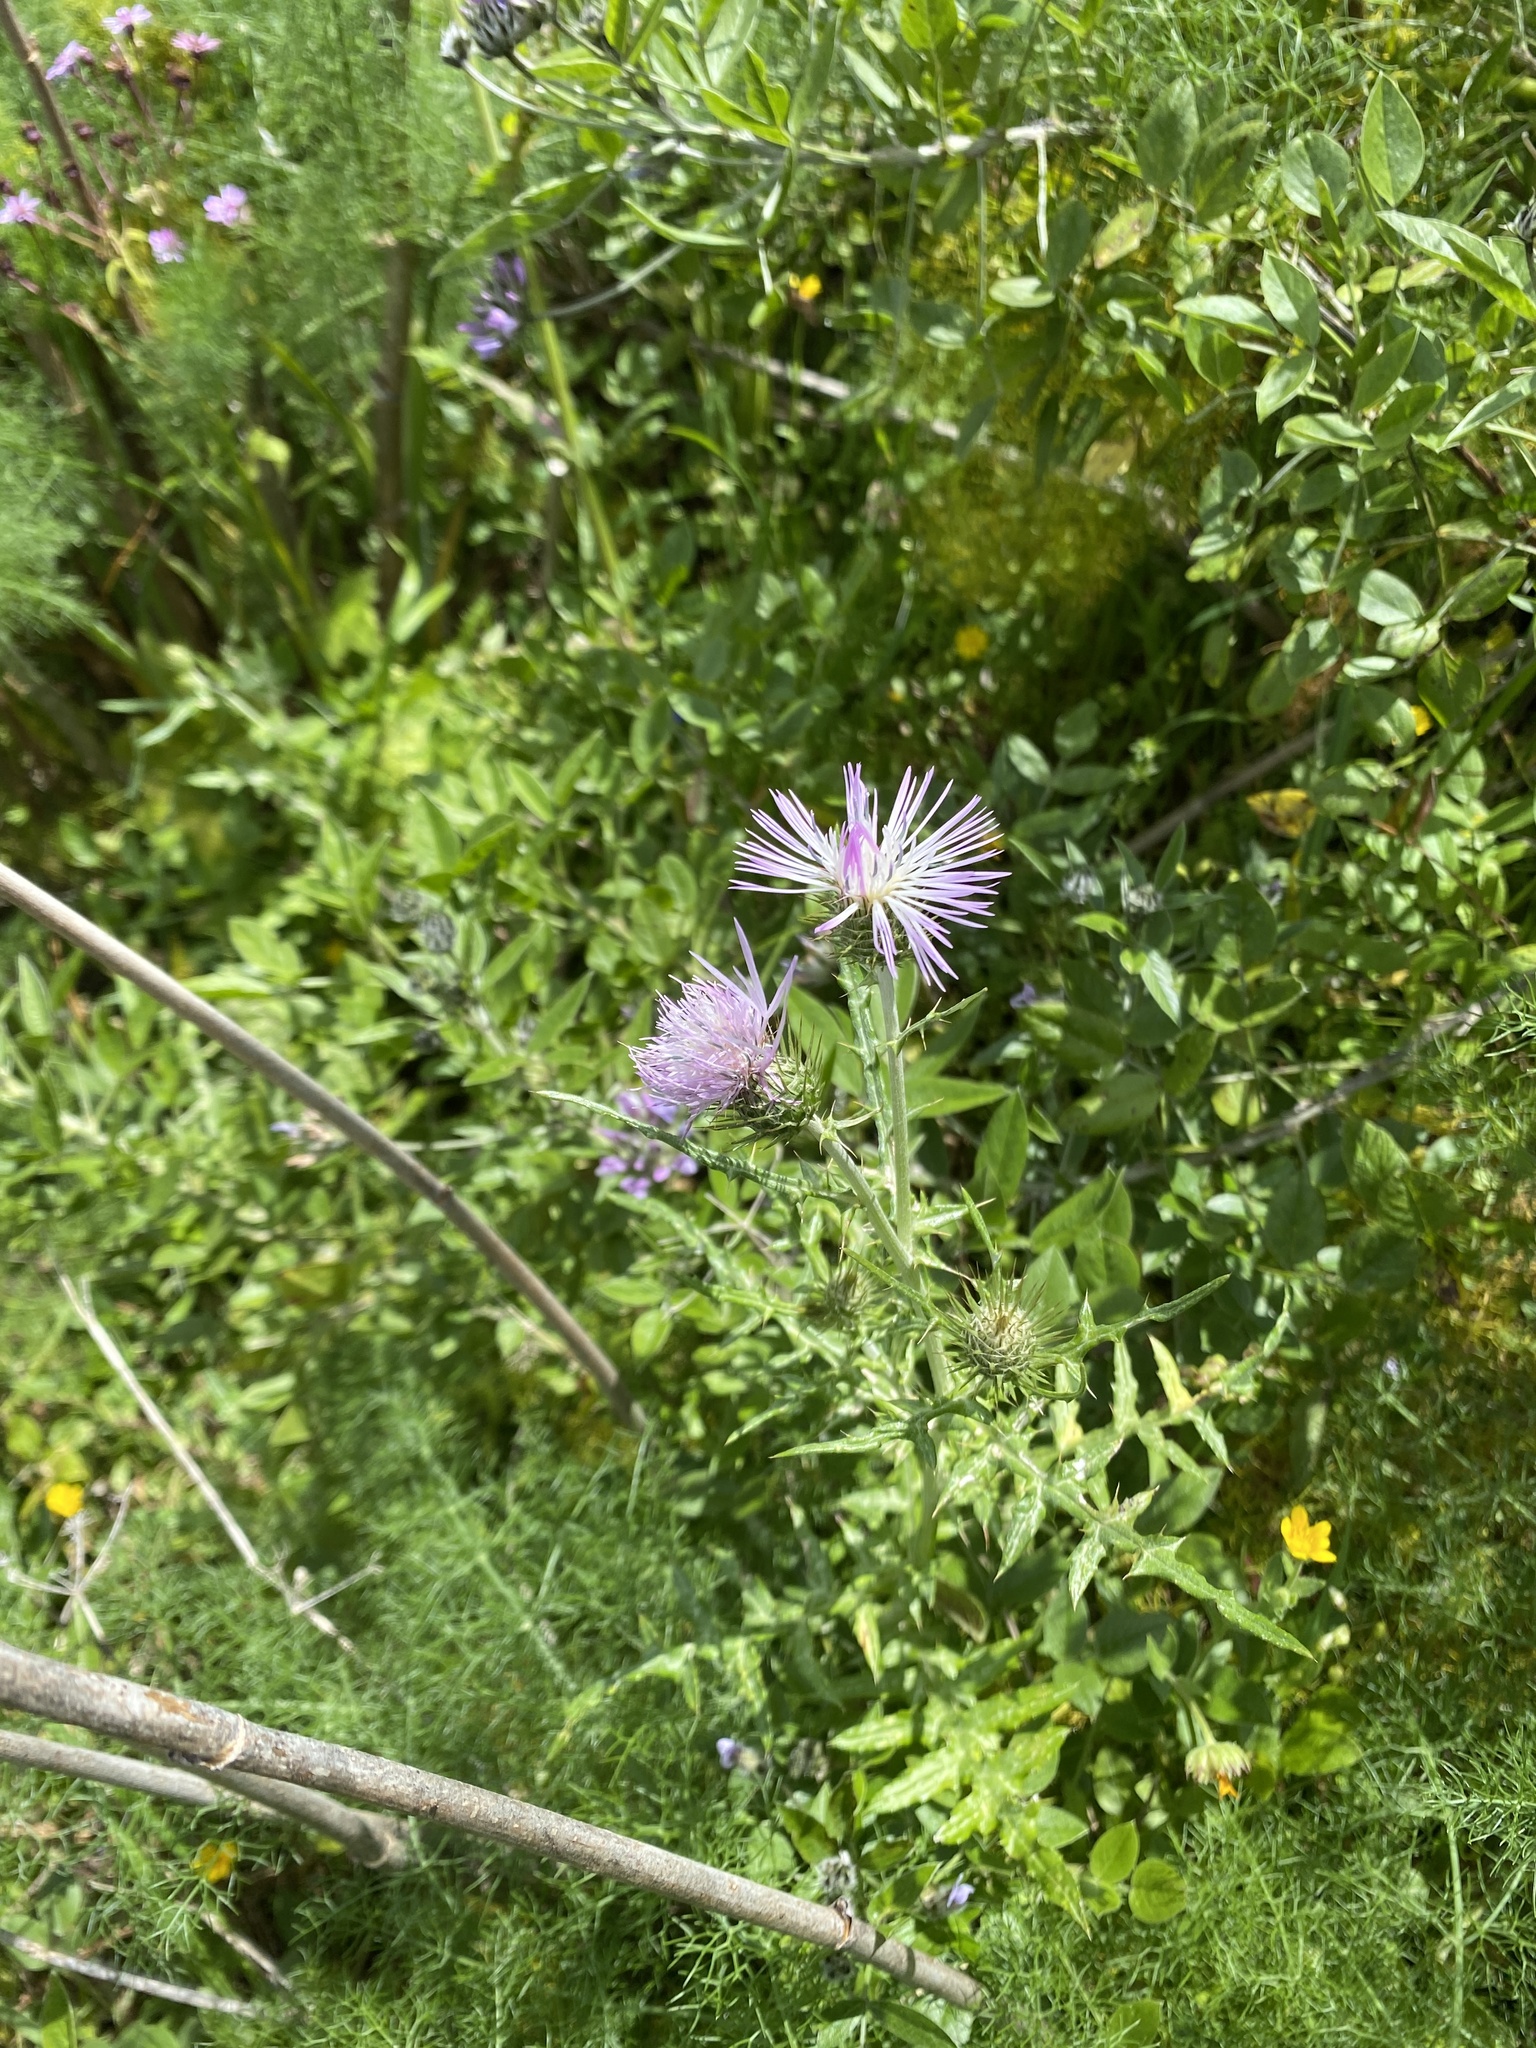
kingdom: Plantae
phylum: Tracheophyta
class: Magnoliopsida
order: Asterales
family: Asteraceae
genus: Galactites
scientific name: Galactites tomentosa
